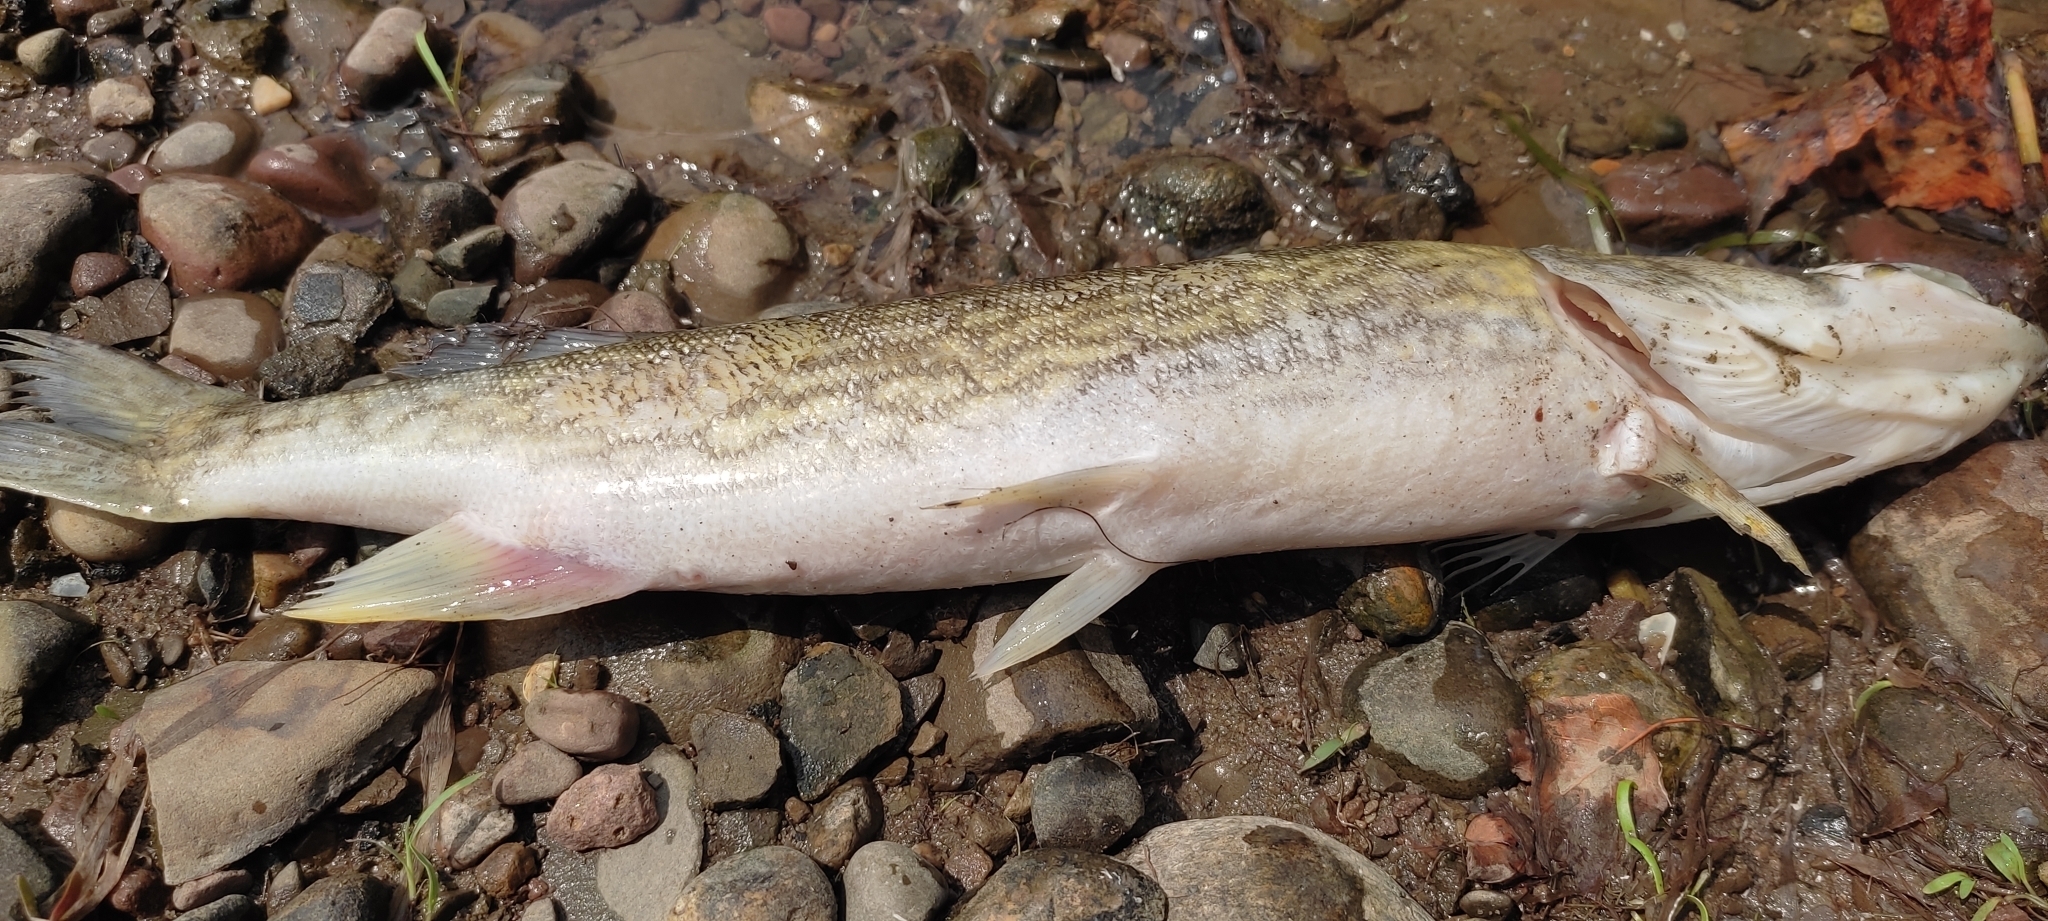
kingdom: Animalia
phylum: Chordata
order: Esociformes
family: Esocidae
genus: Esox
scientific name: Esox niger
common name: Chain pickerel
